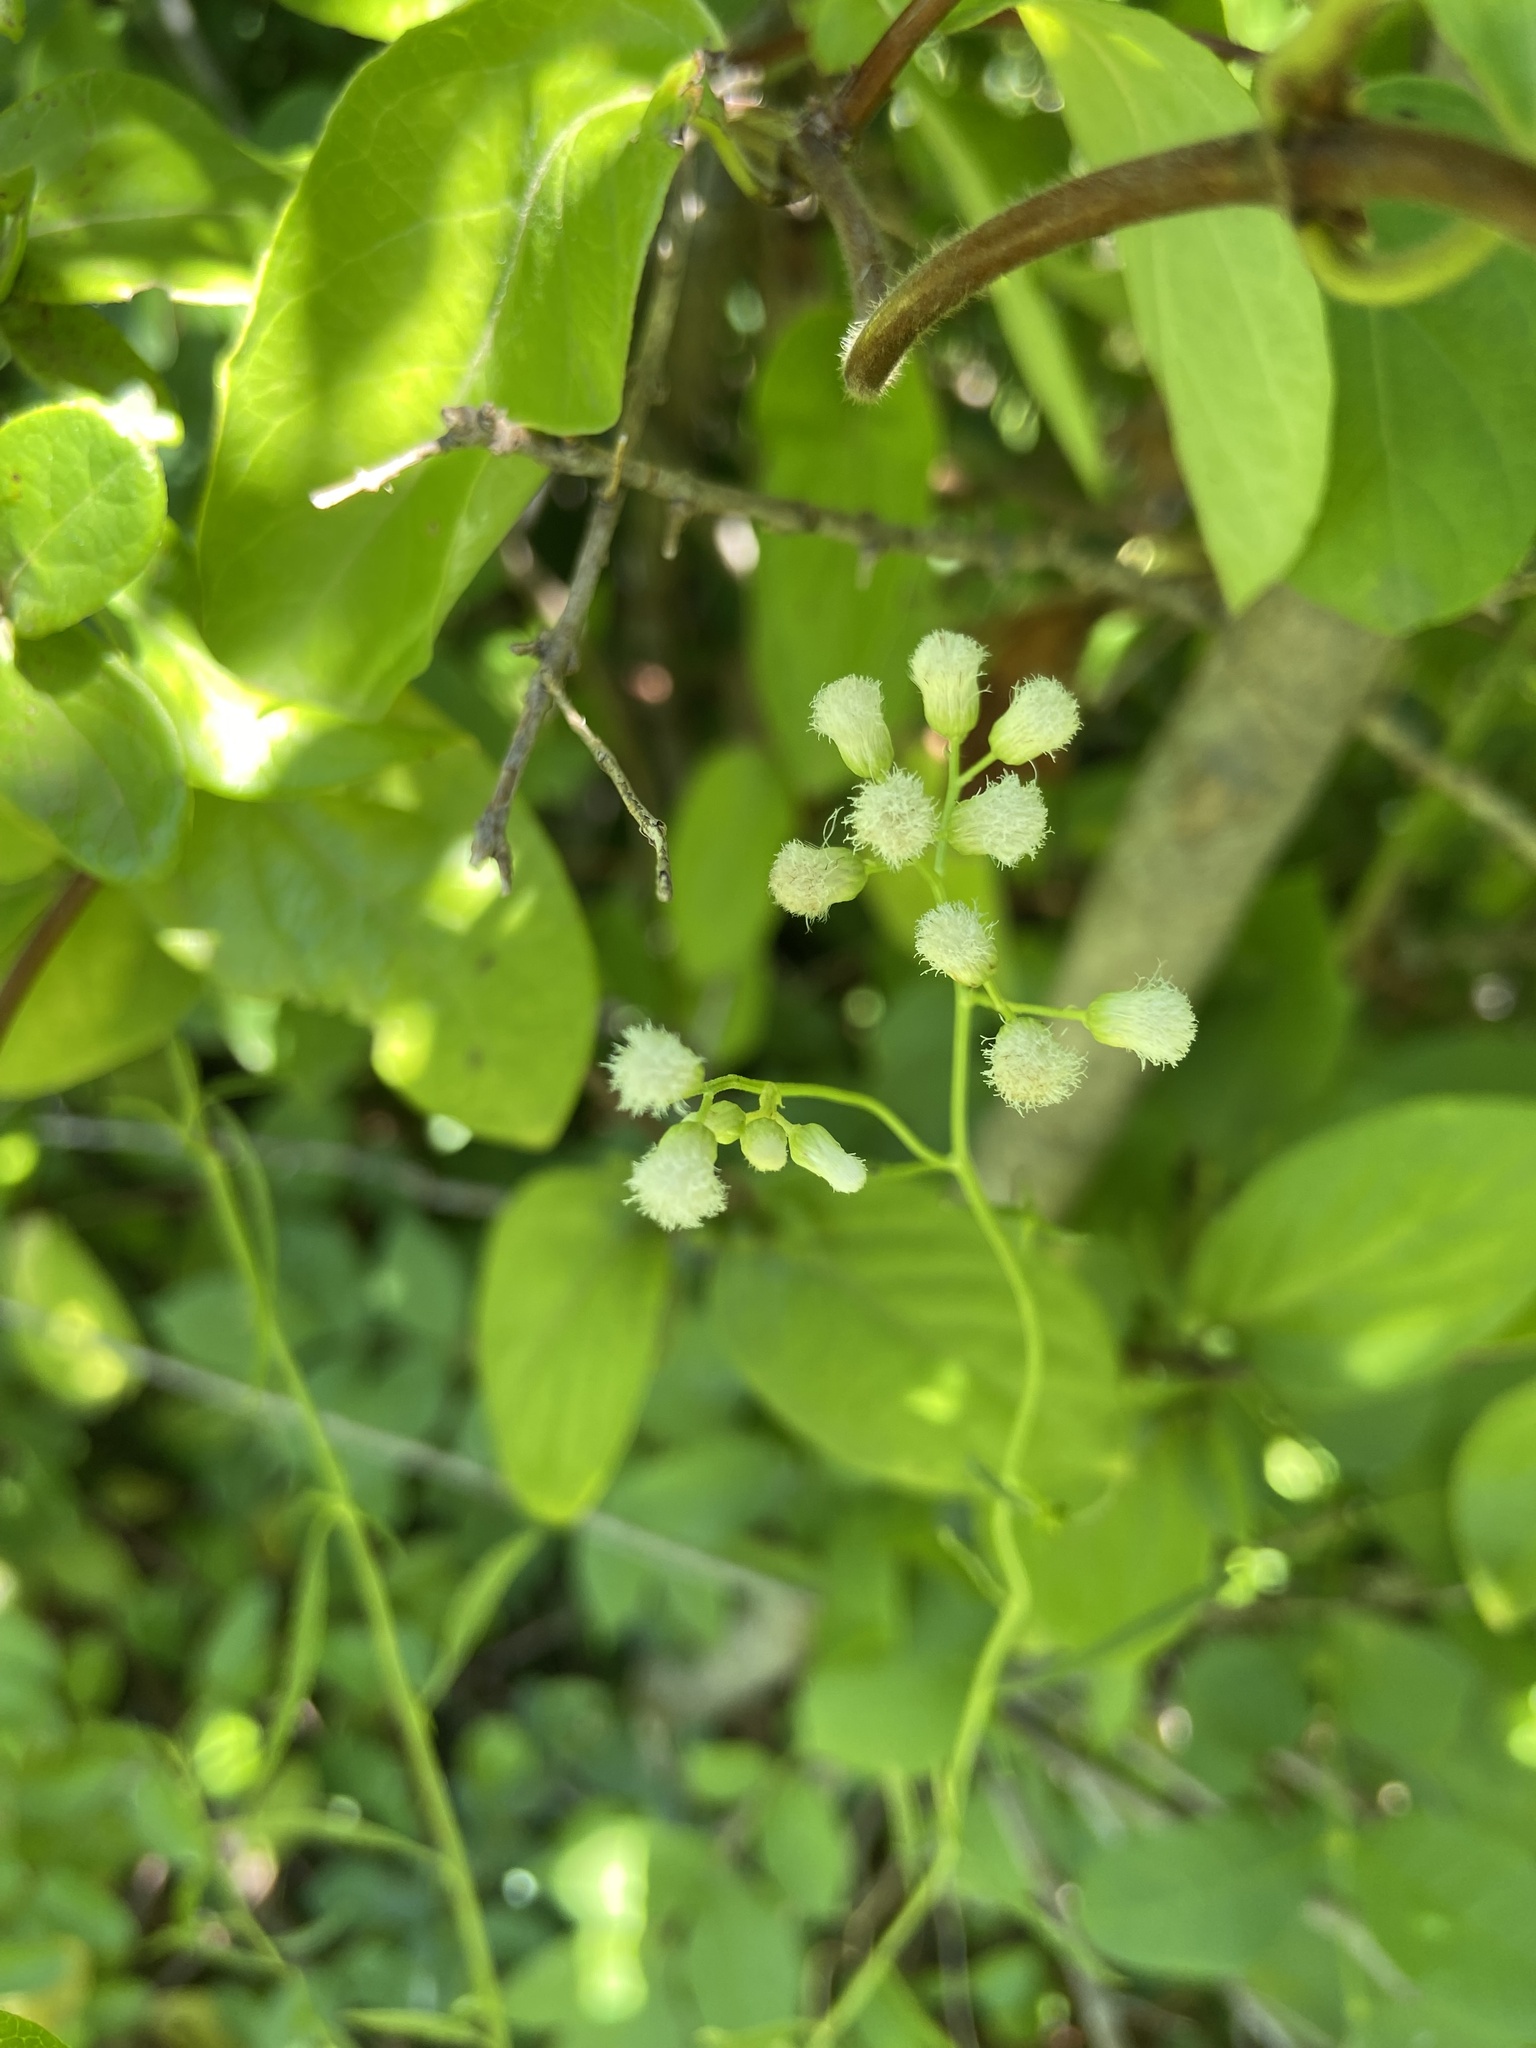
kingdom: Plantae
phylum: Tracheophyta
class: Magnoliopsida
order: Asterales
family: Asteraceae
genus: Baccharis
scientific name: Baccharis glutinosa
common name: Saltmarsh baccharis
